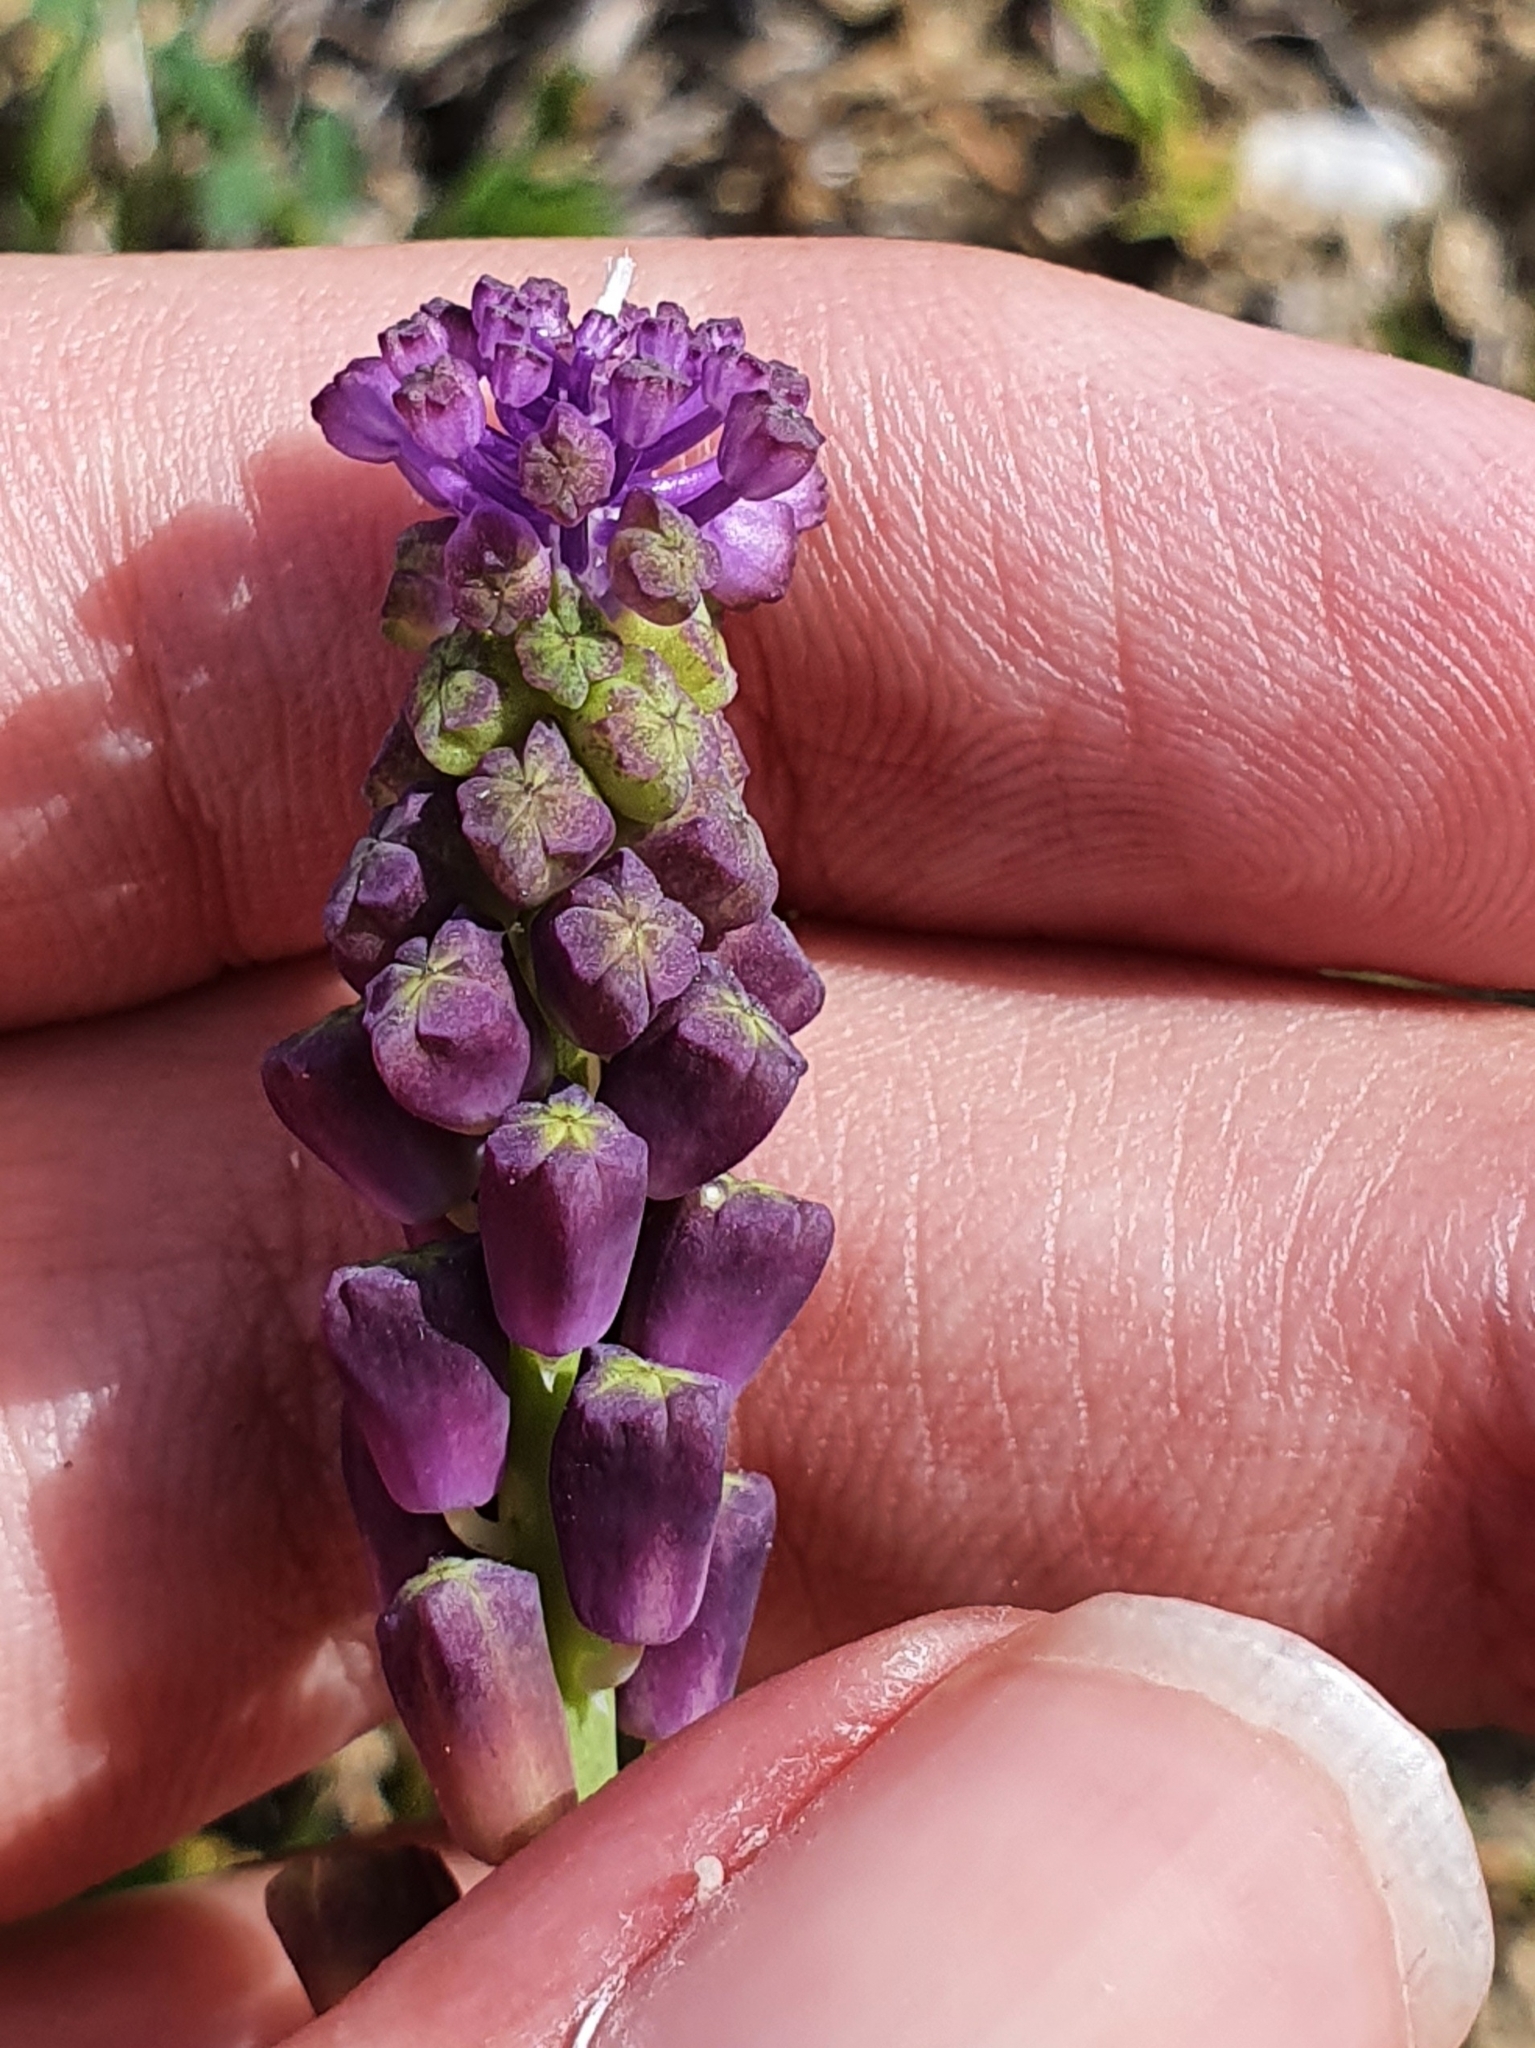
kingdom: Plantae
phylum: Tracheophyta
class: Liliopsida
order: Asparagales
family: Asparagaceae
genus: Muscari
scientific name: Muscari comosum
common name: Tassel hyacinth
